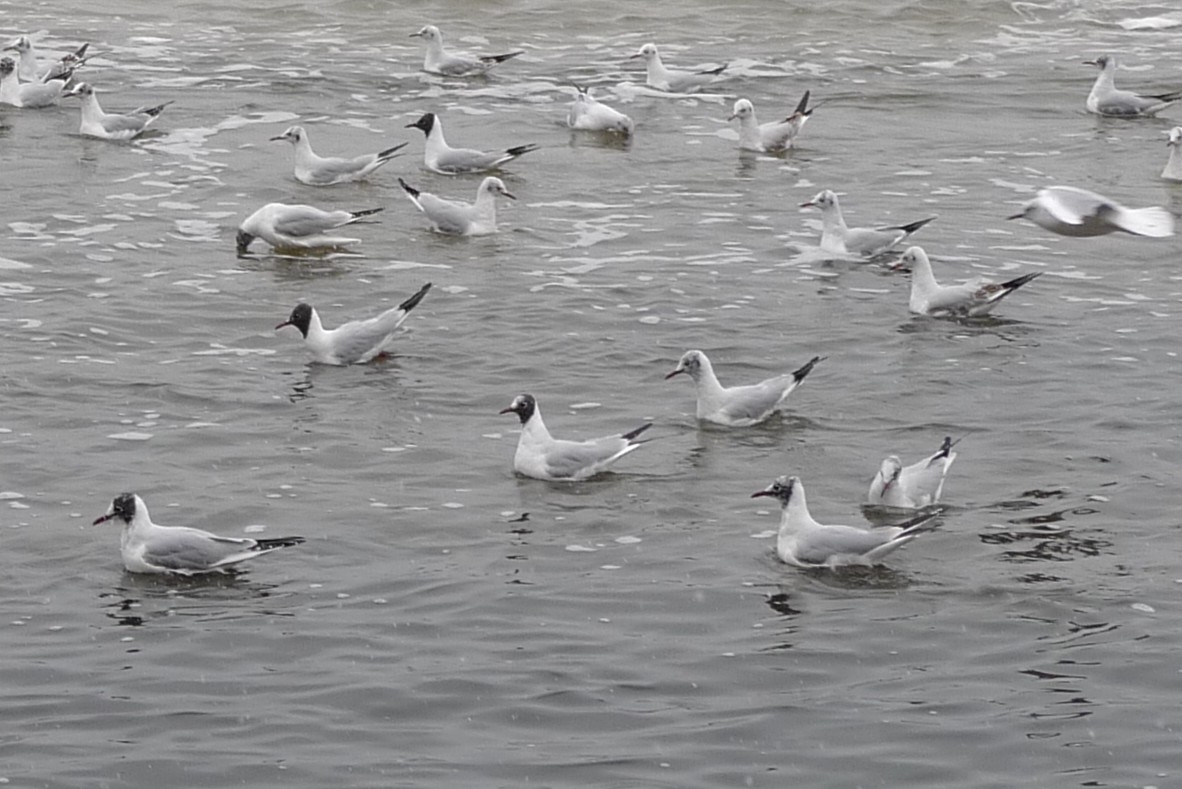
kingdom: Animalia
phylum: Chordata
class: Aves
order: Charadriiformes
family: Laridae
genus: Chroicocephalus
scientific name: Chroicocephalus ridibundus
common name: Black-headed gull
